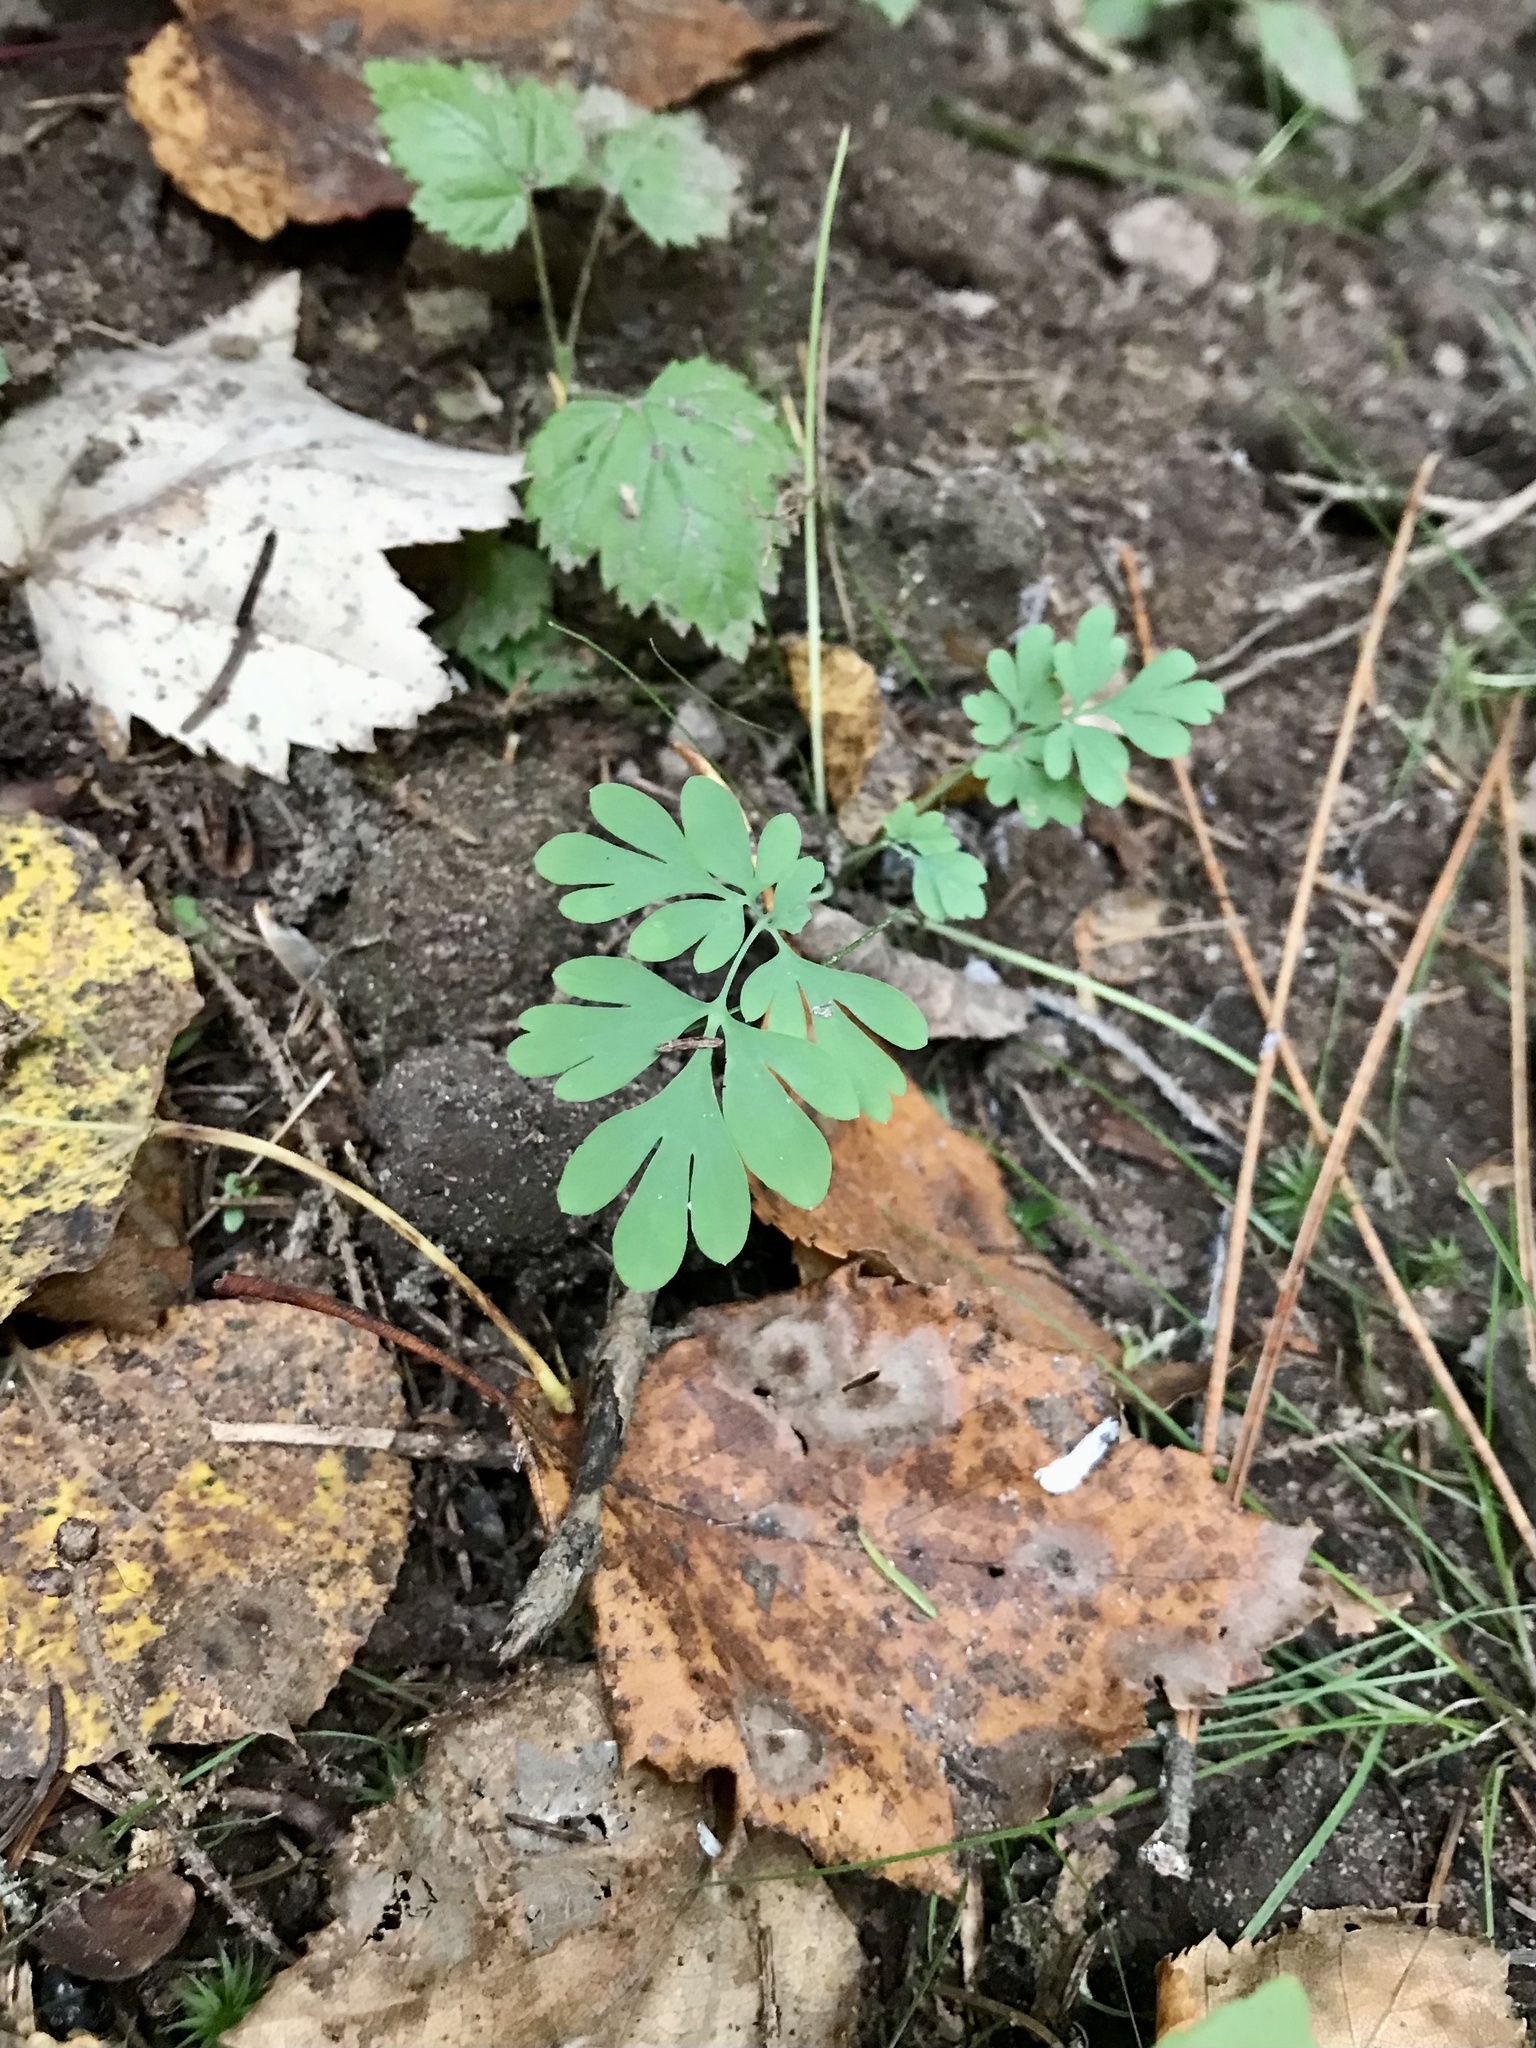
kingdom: Plantae
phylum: Tracheophyta
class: Magnoliopsida
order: Ranunculales
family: Papaveraceae
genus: Capnoides
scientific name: Capnoides sempervirens
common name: Rock harlequin
